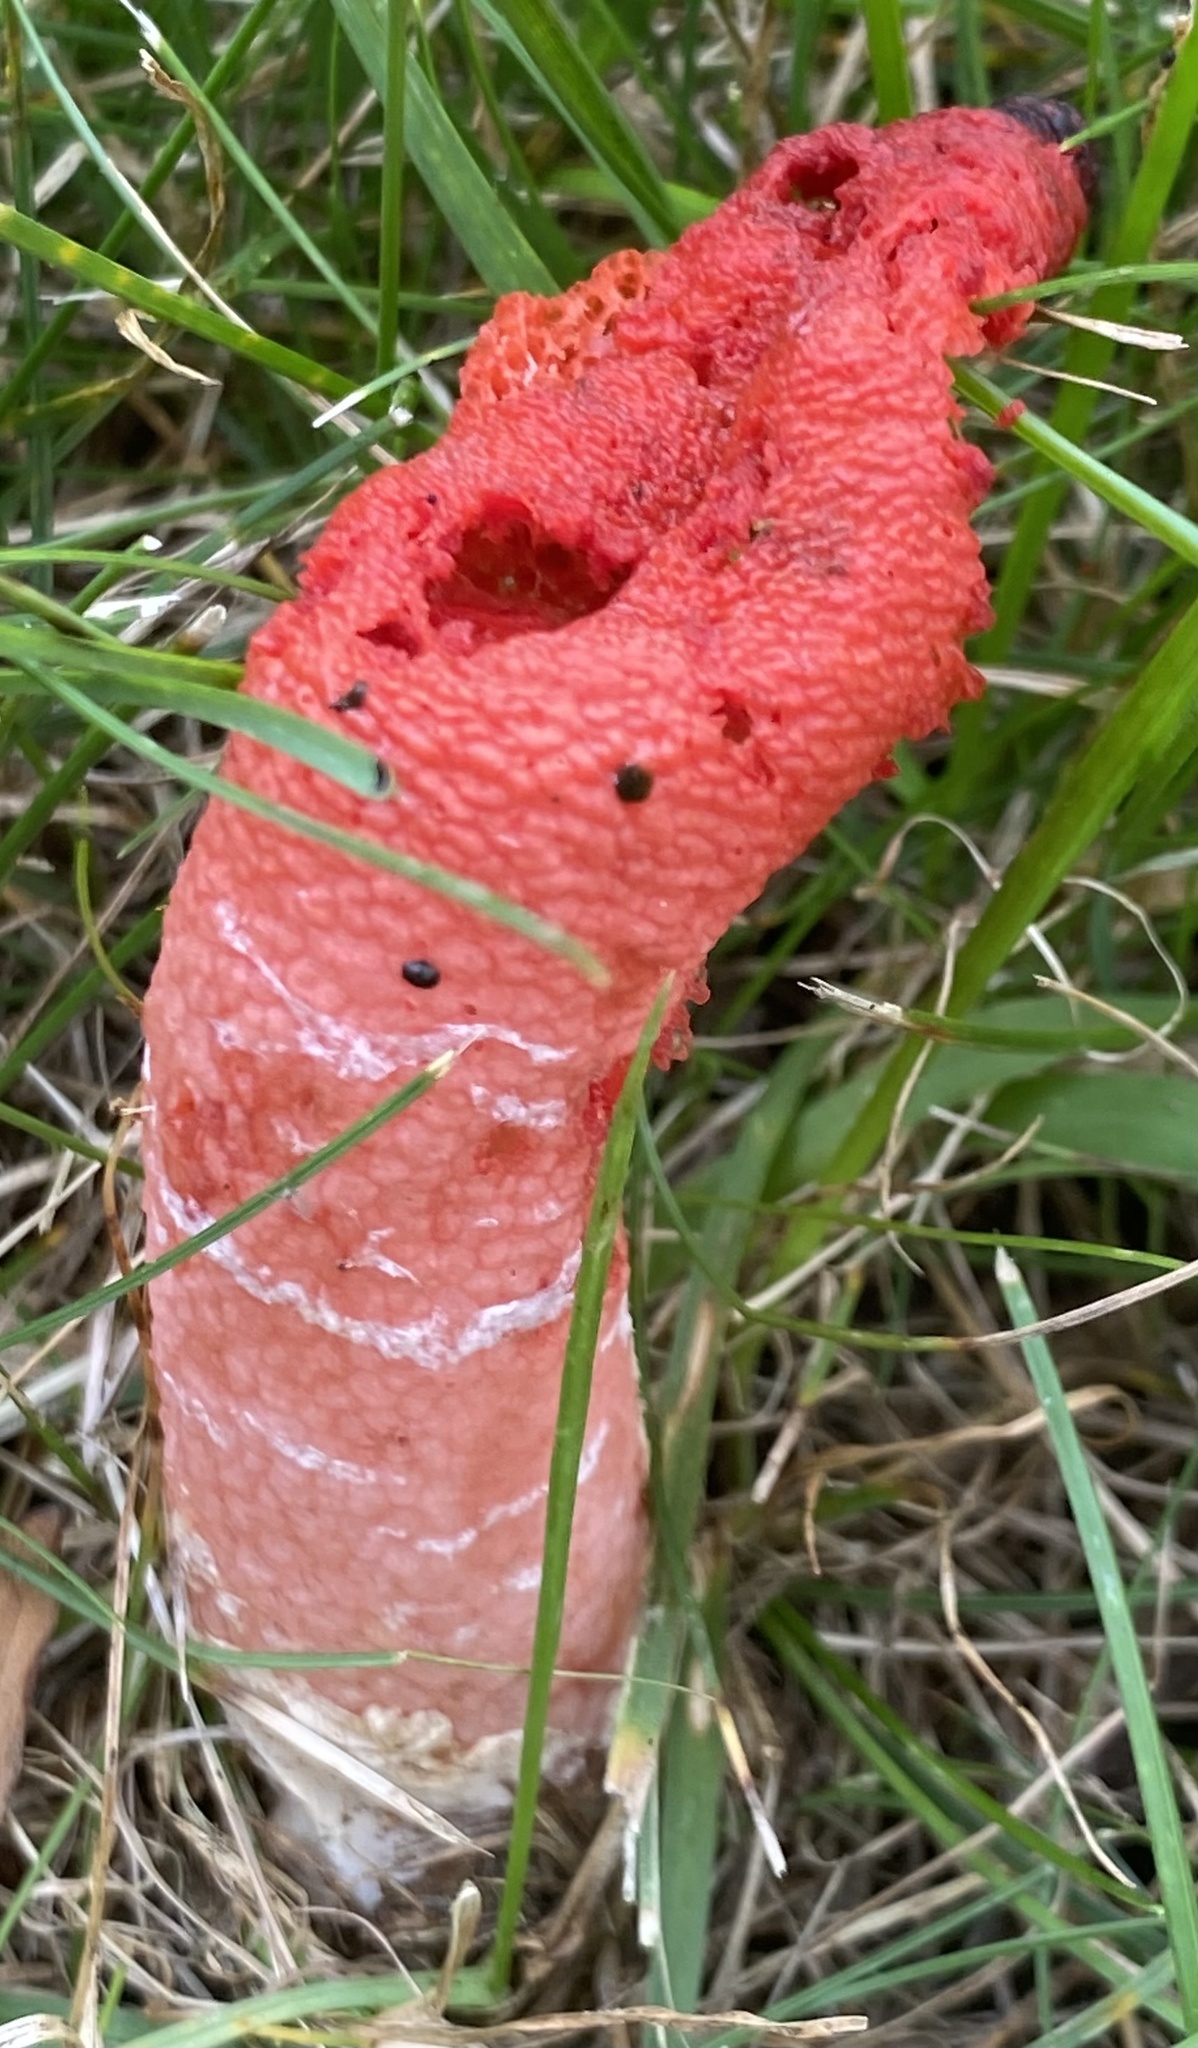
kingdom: Fungi
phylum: Basidiomycota
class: Agaricomycetes
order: Phallales
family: Phallaceae
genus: Mutinus
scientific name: Mutinus elegans
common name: Devil's dipstick
